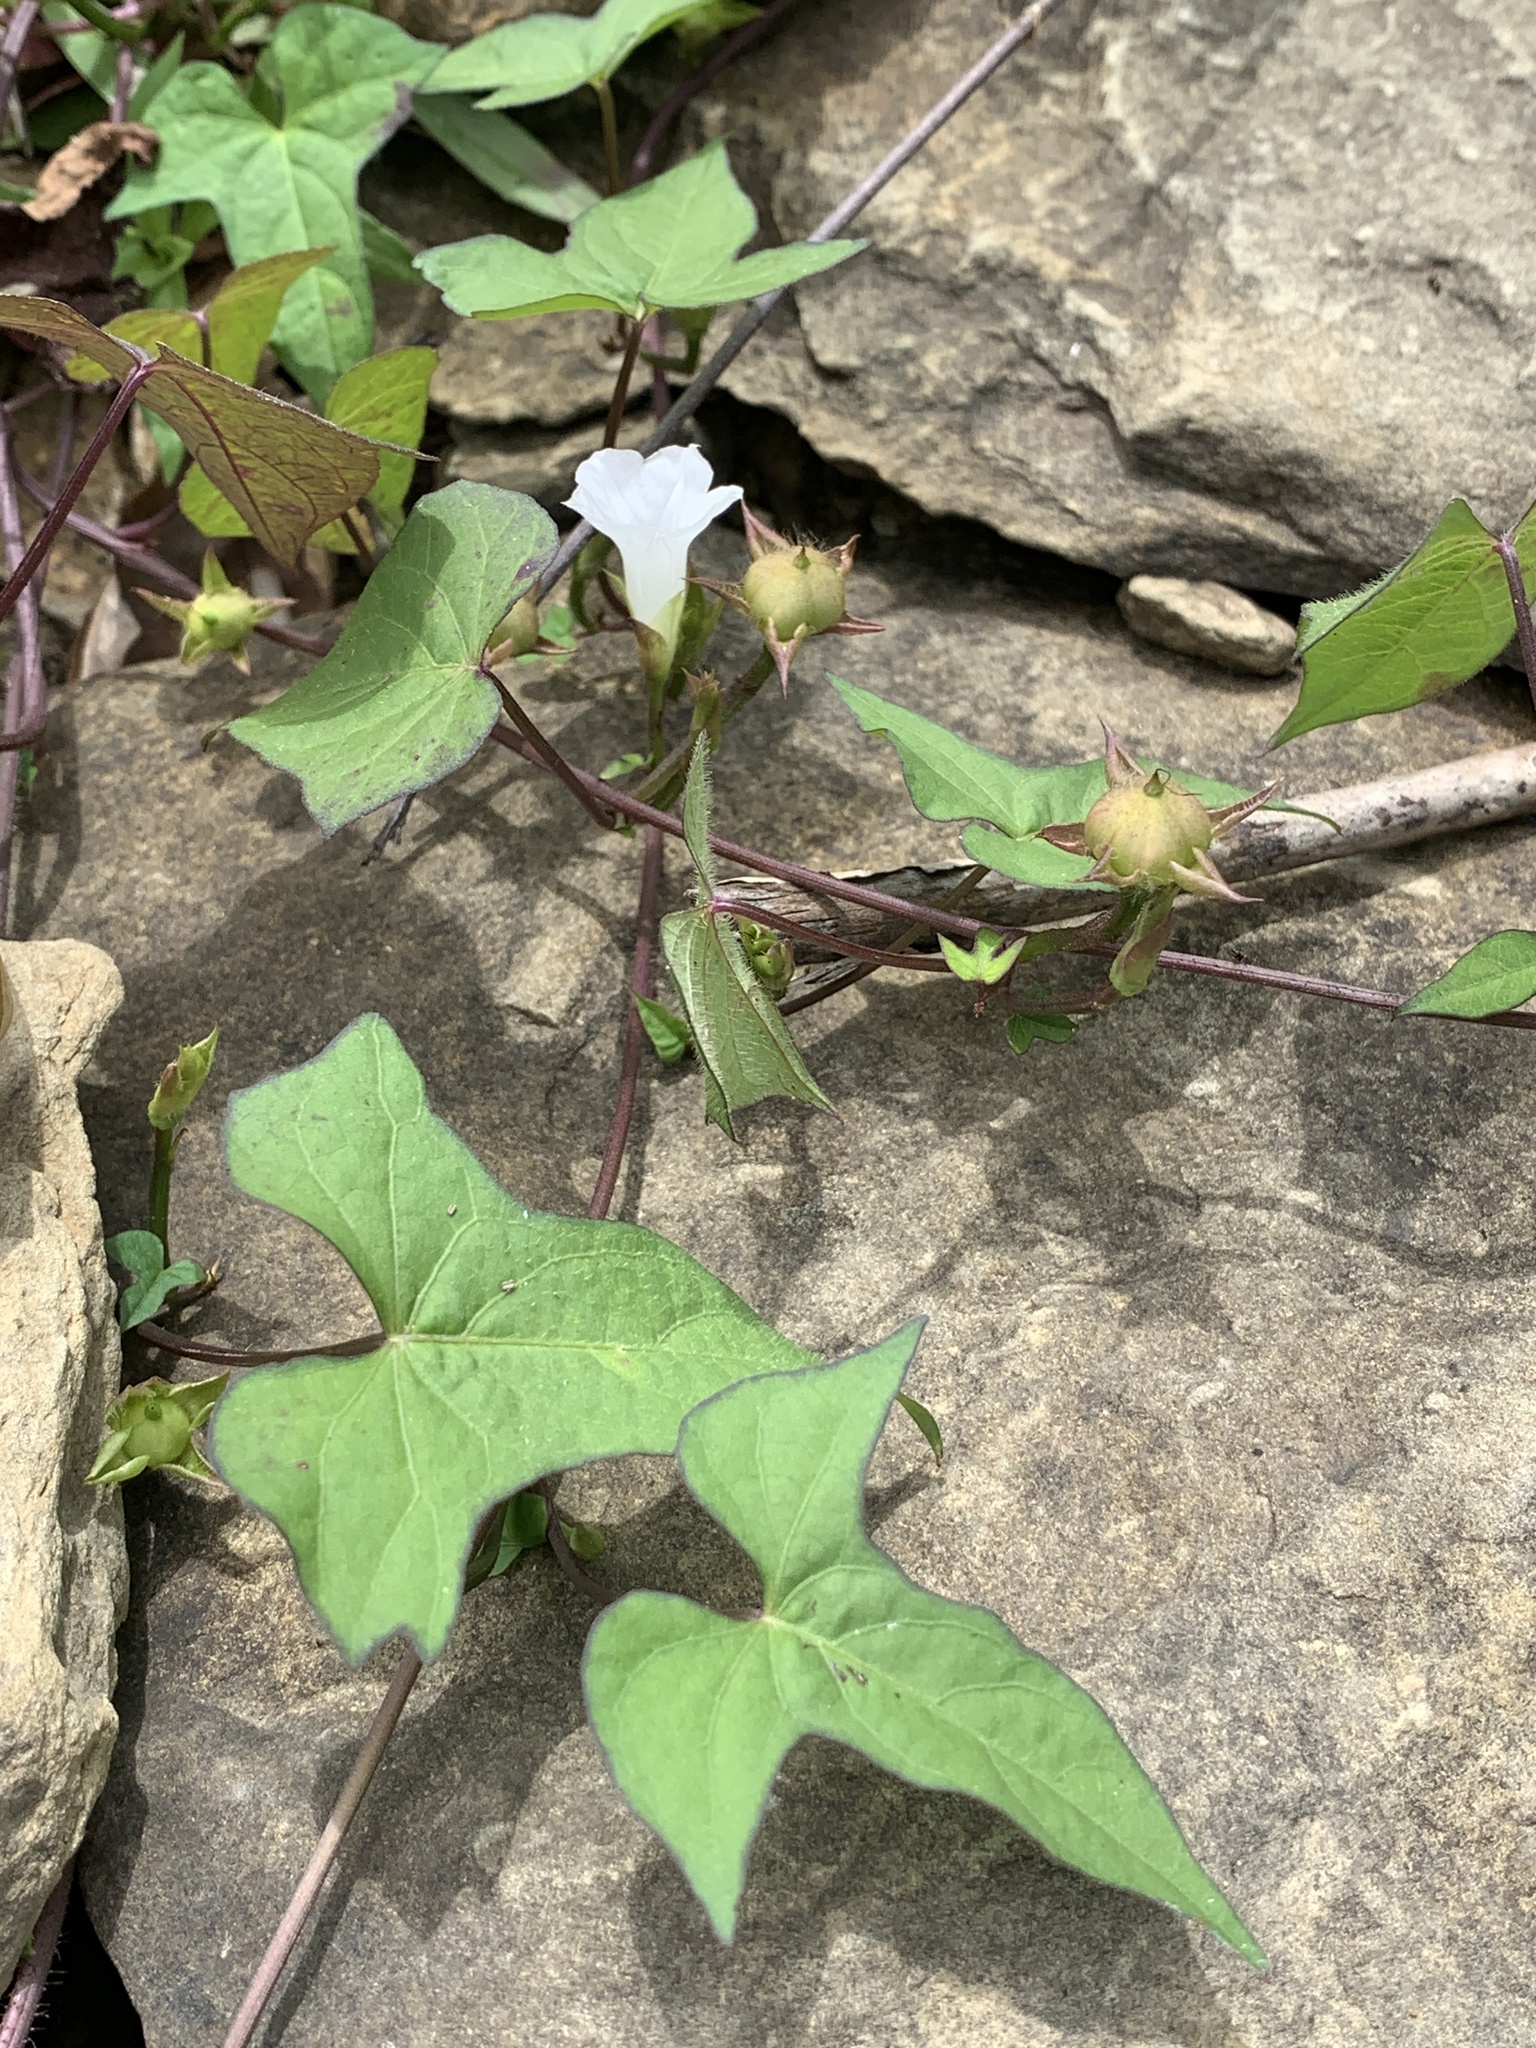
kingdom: Plantae
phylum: Tracheophyta
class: Magnoliopsida
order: Solanales
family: Convolvulaceae
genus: Ipomoea
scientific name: Ipomoea lacunosa
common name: White morning-glory
